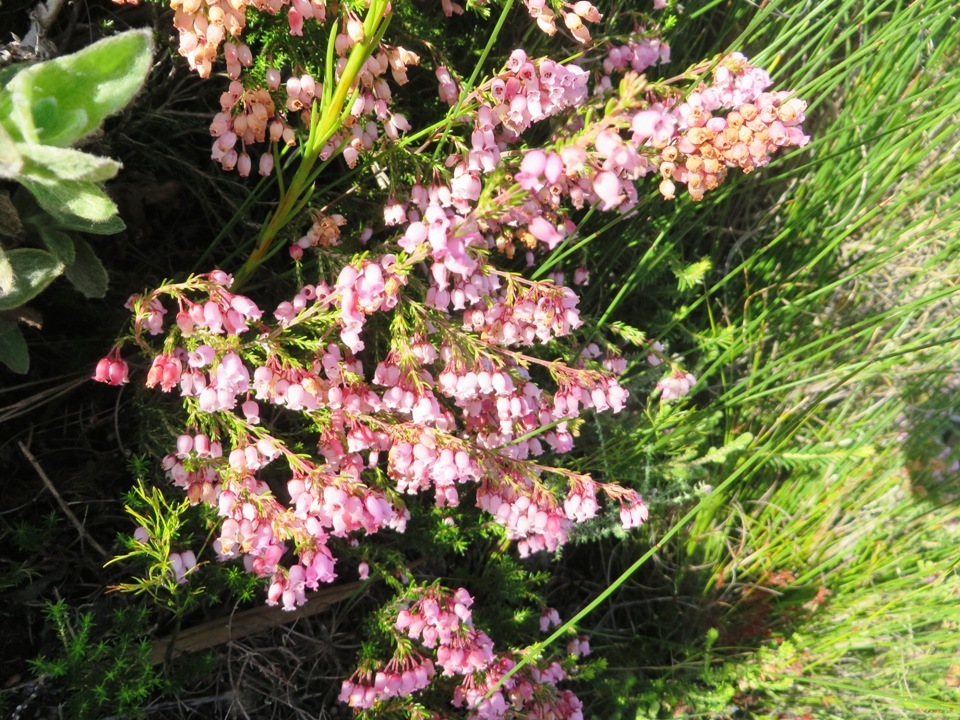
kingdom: Plantae
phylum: Tracheophyta
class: Magnoliopsida
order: Ericales
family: Ericaceae
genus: Erica
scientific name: Erica tenella
